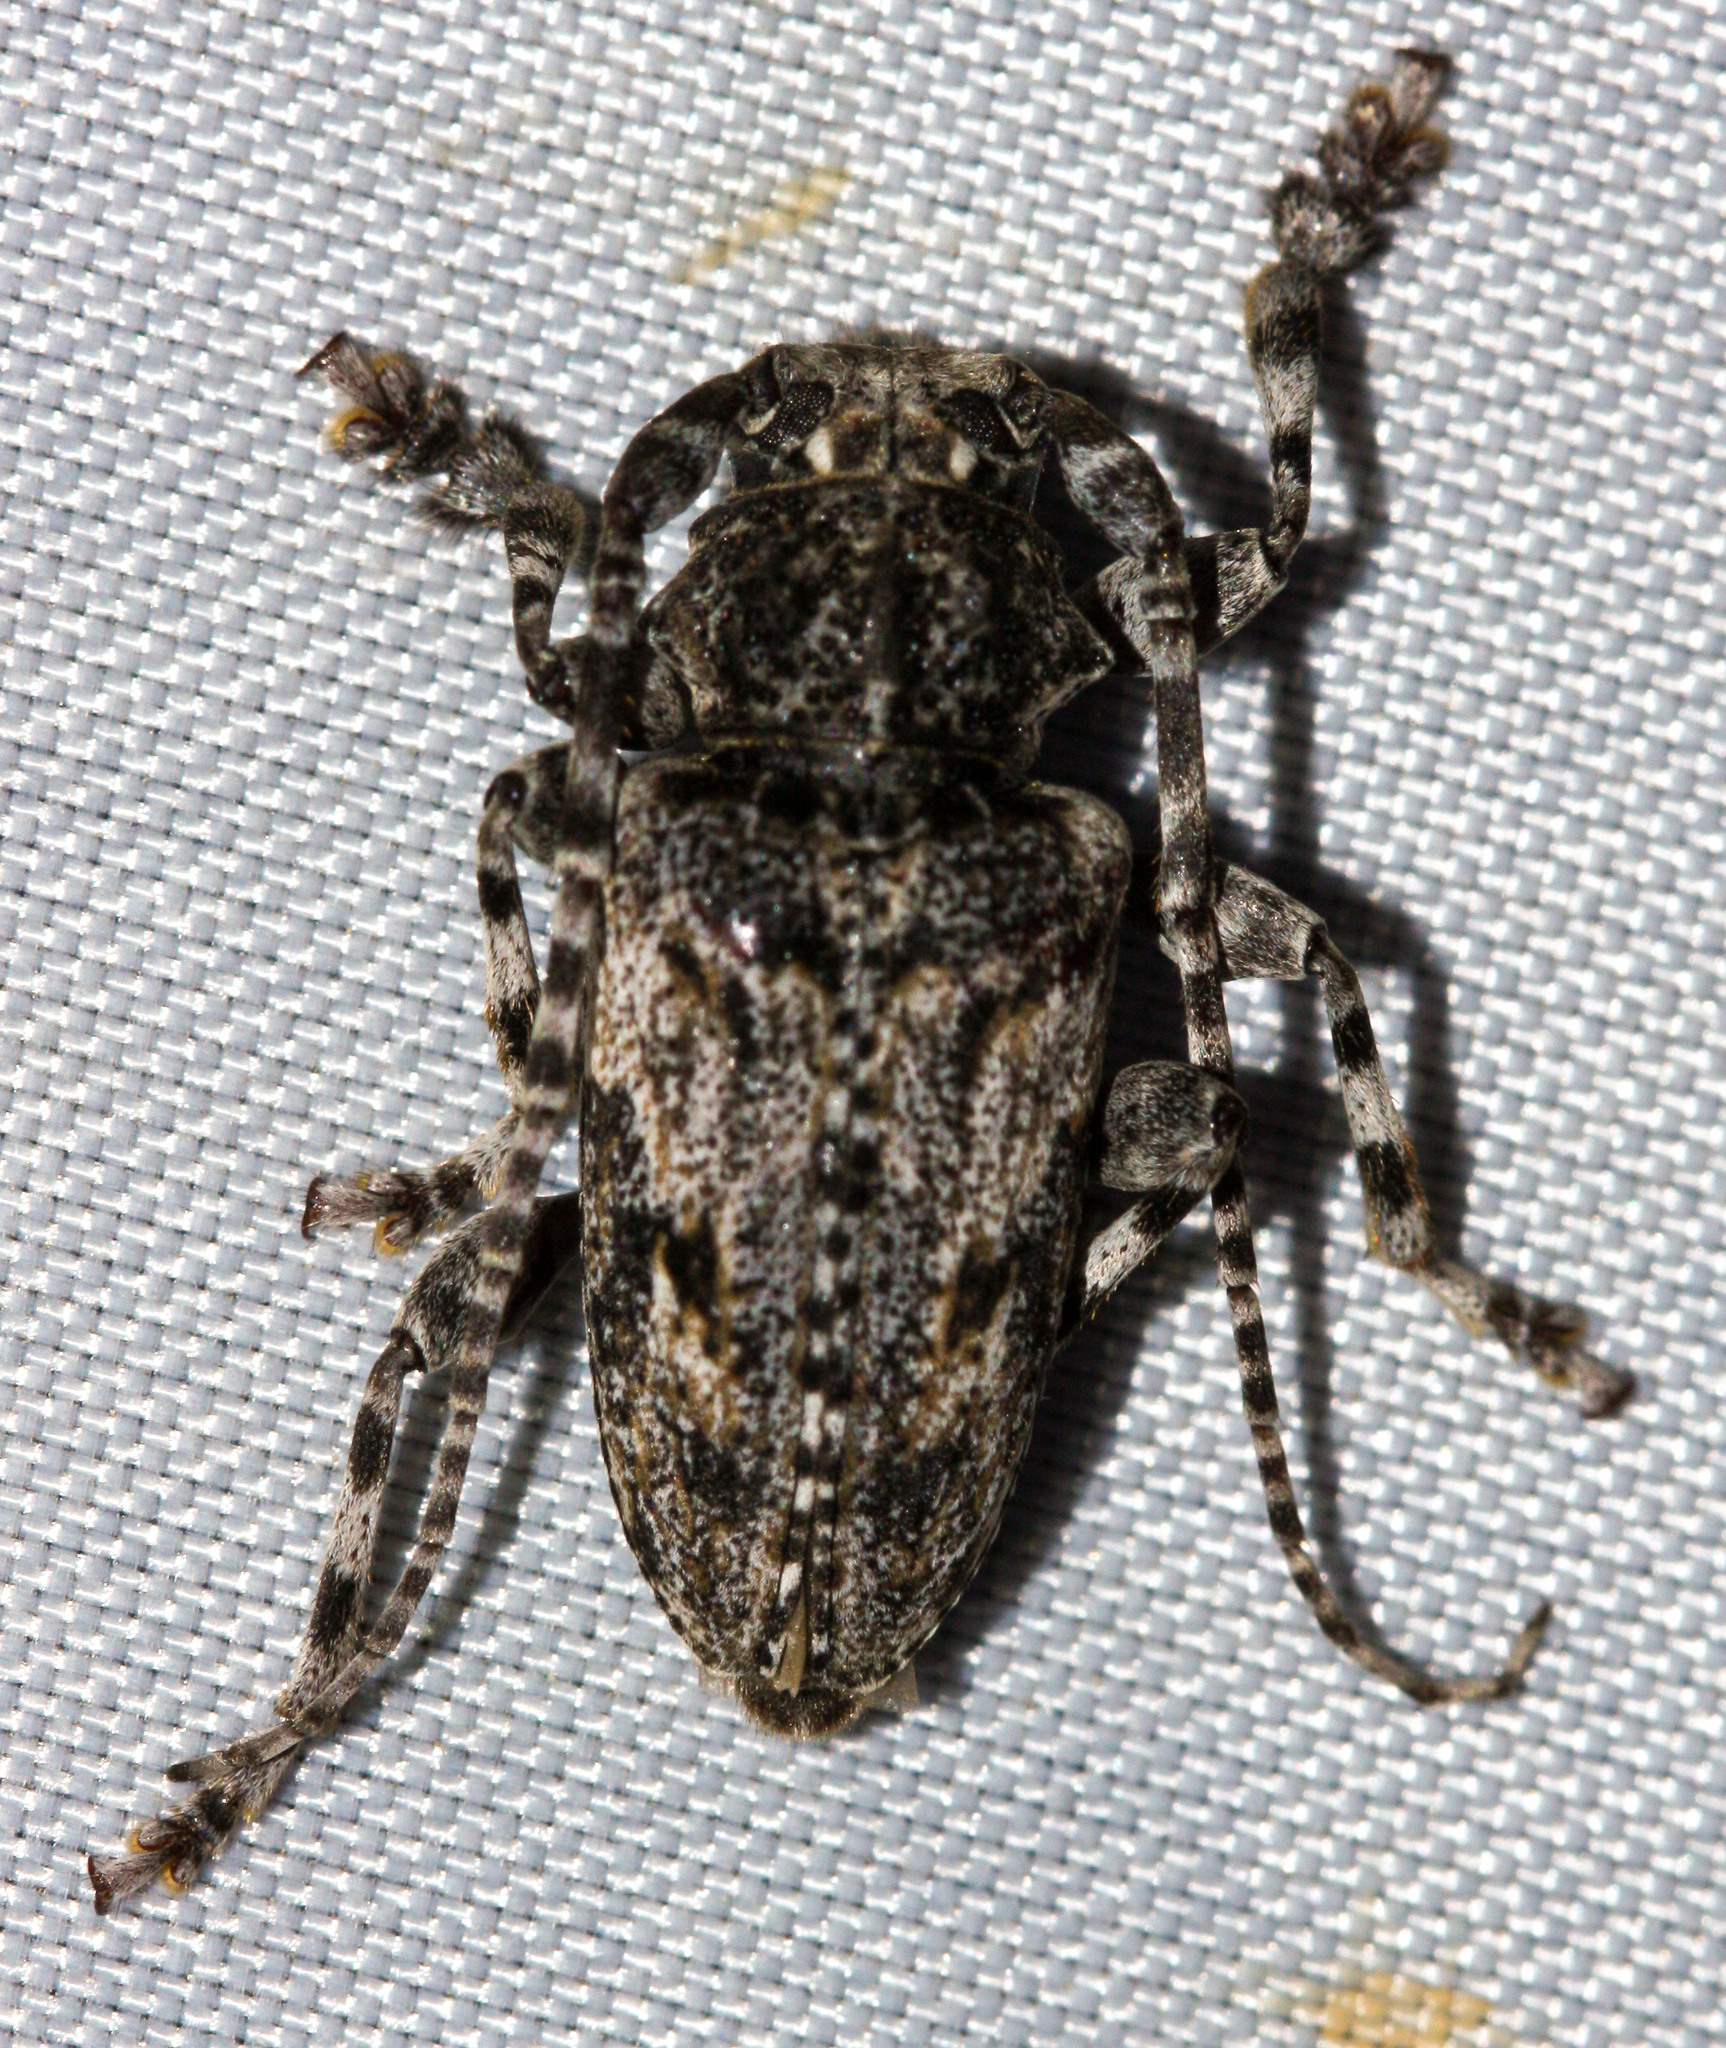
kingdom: Animalia
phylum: Arthropoda
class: Insecta
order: Coleoptera
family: Cerambycidae
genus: Aegomorphus
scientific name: Aegomorphus arizonicus
